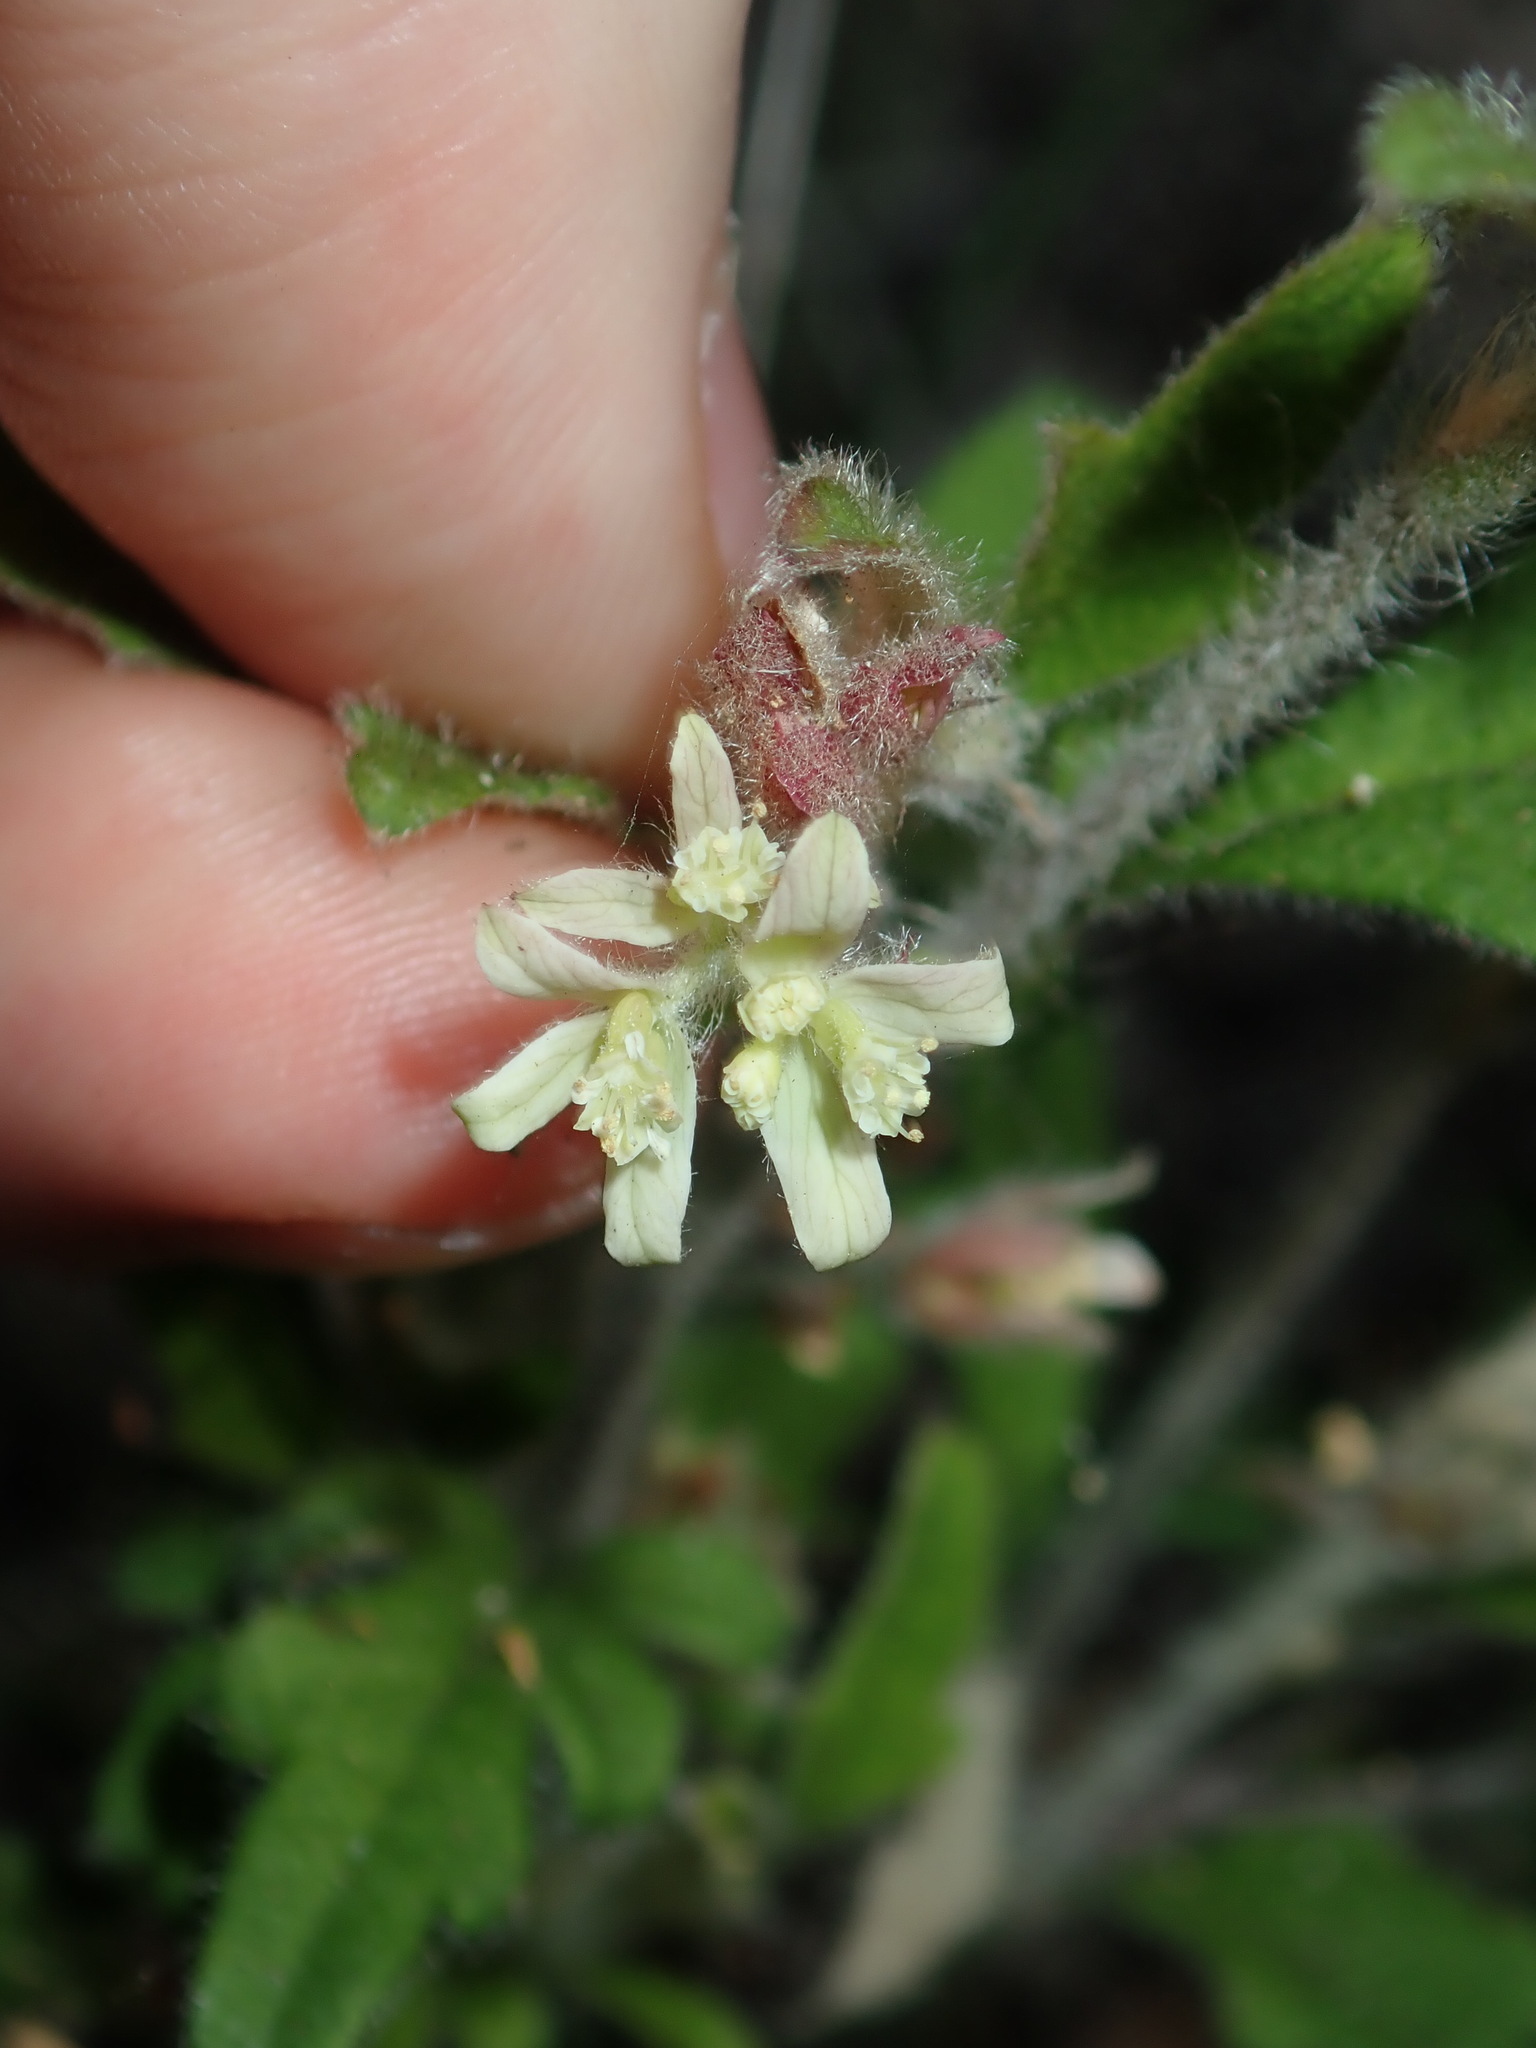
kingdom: Plantae
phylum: Tracheophyta
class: Magnoliopsida
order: Apiales
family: Apiaceae
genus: Xanthosia
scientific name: Xanthosia pilosa
